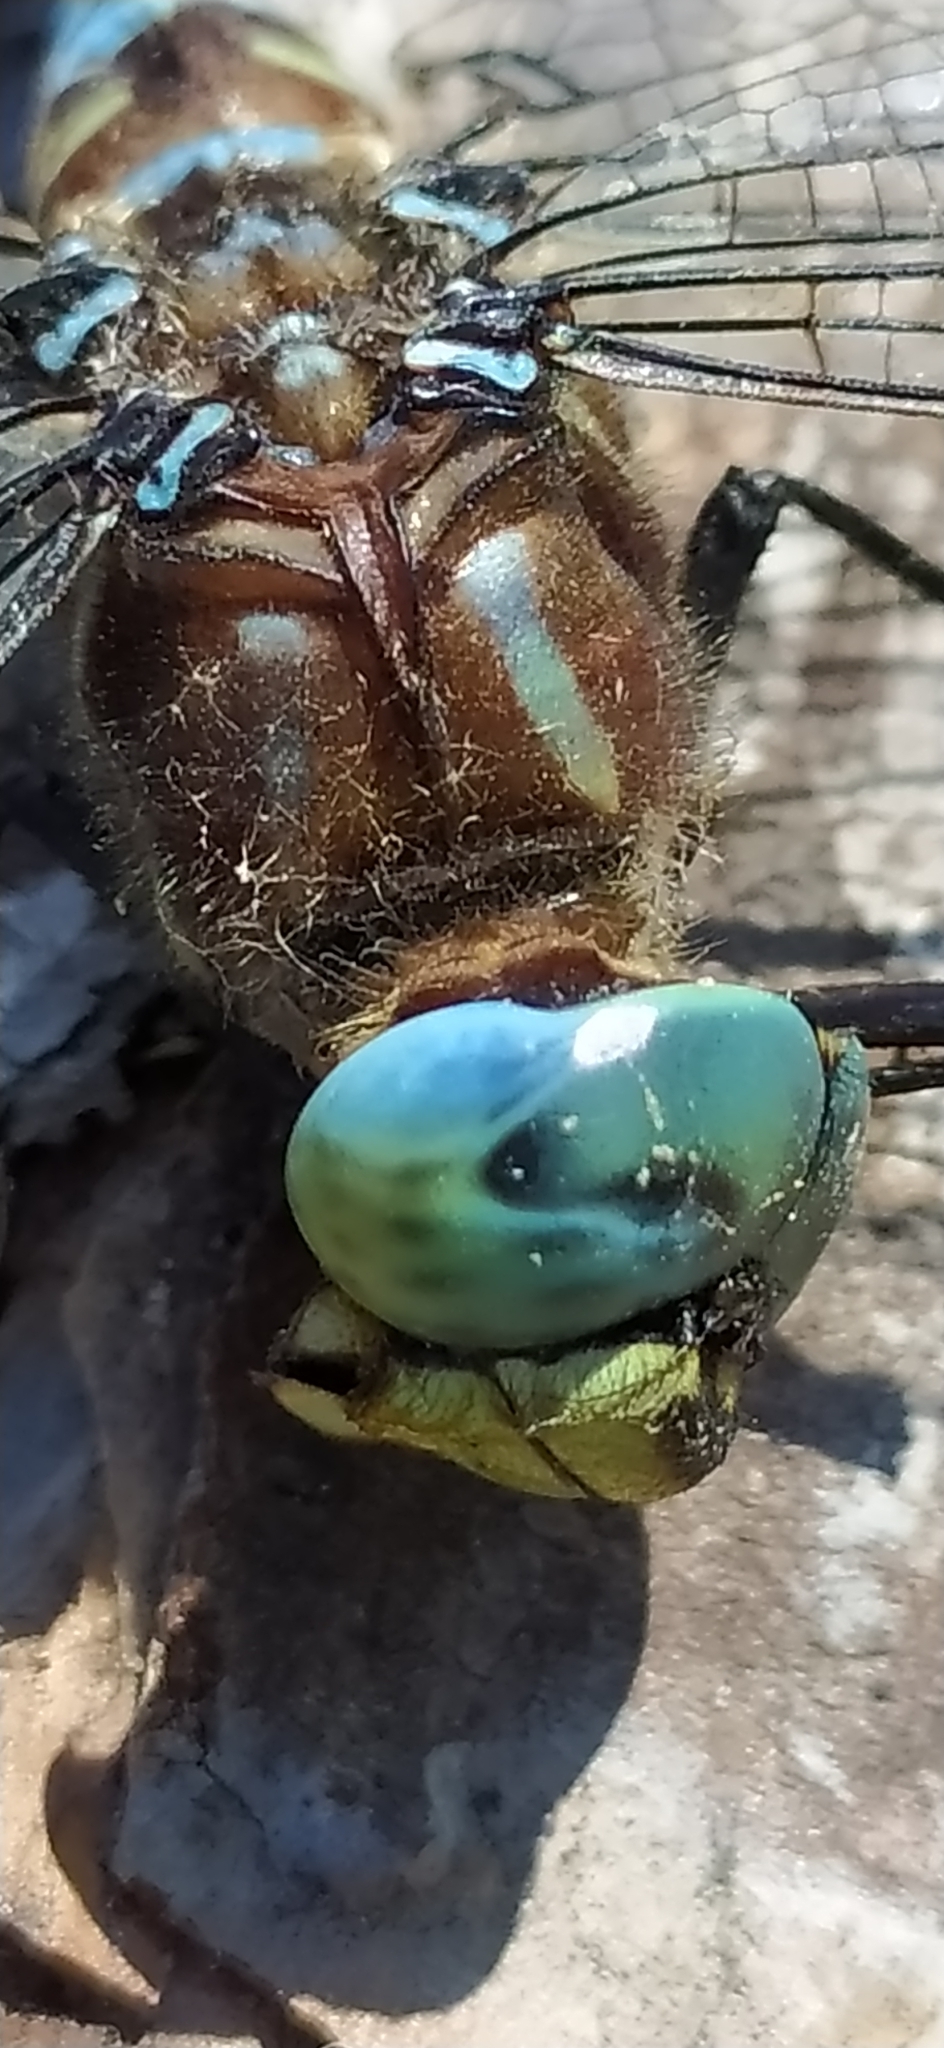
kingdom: Animalia
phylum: Arthropoda
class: Insecta
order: Odonata
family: Aeshnidae
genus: Aeshna
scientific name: Aeshna crenata
